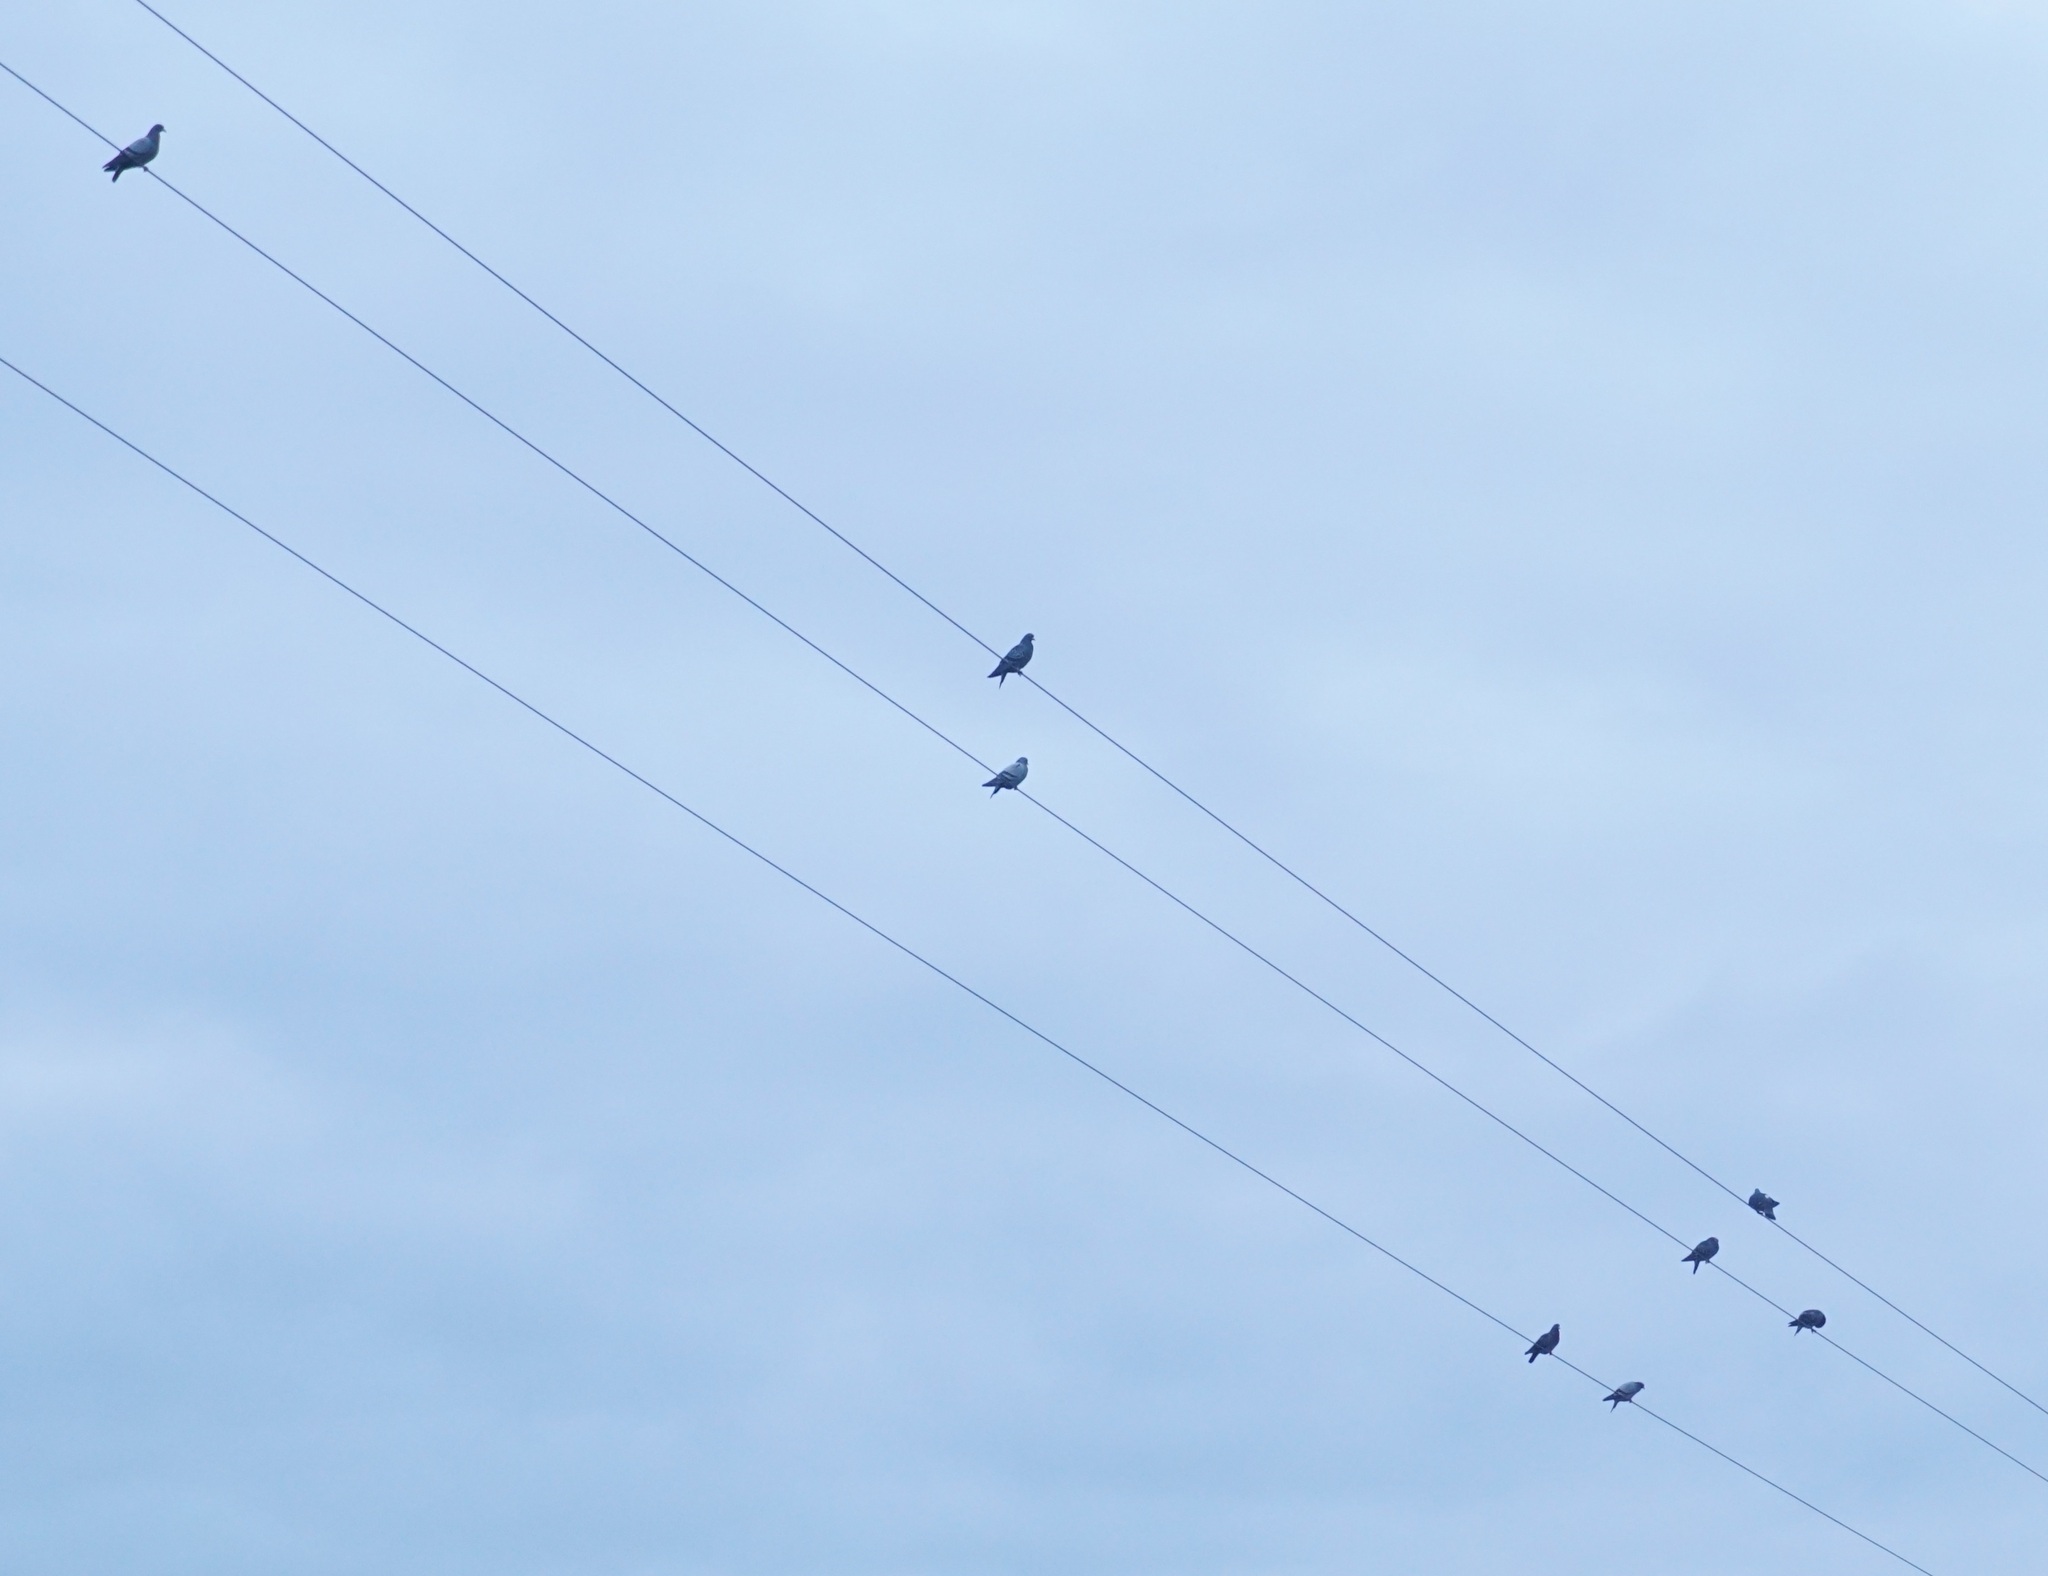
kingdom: Animalia
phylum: Chordata
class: Aves
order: Columbiformes
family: Columbidae
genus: Columba
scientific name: Columba livia
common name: Rock pigeon
